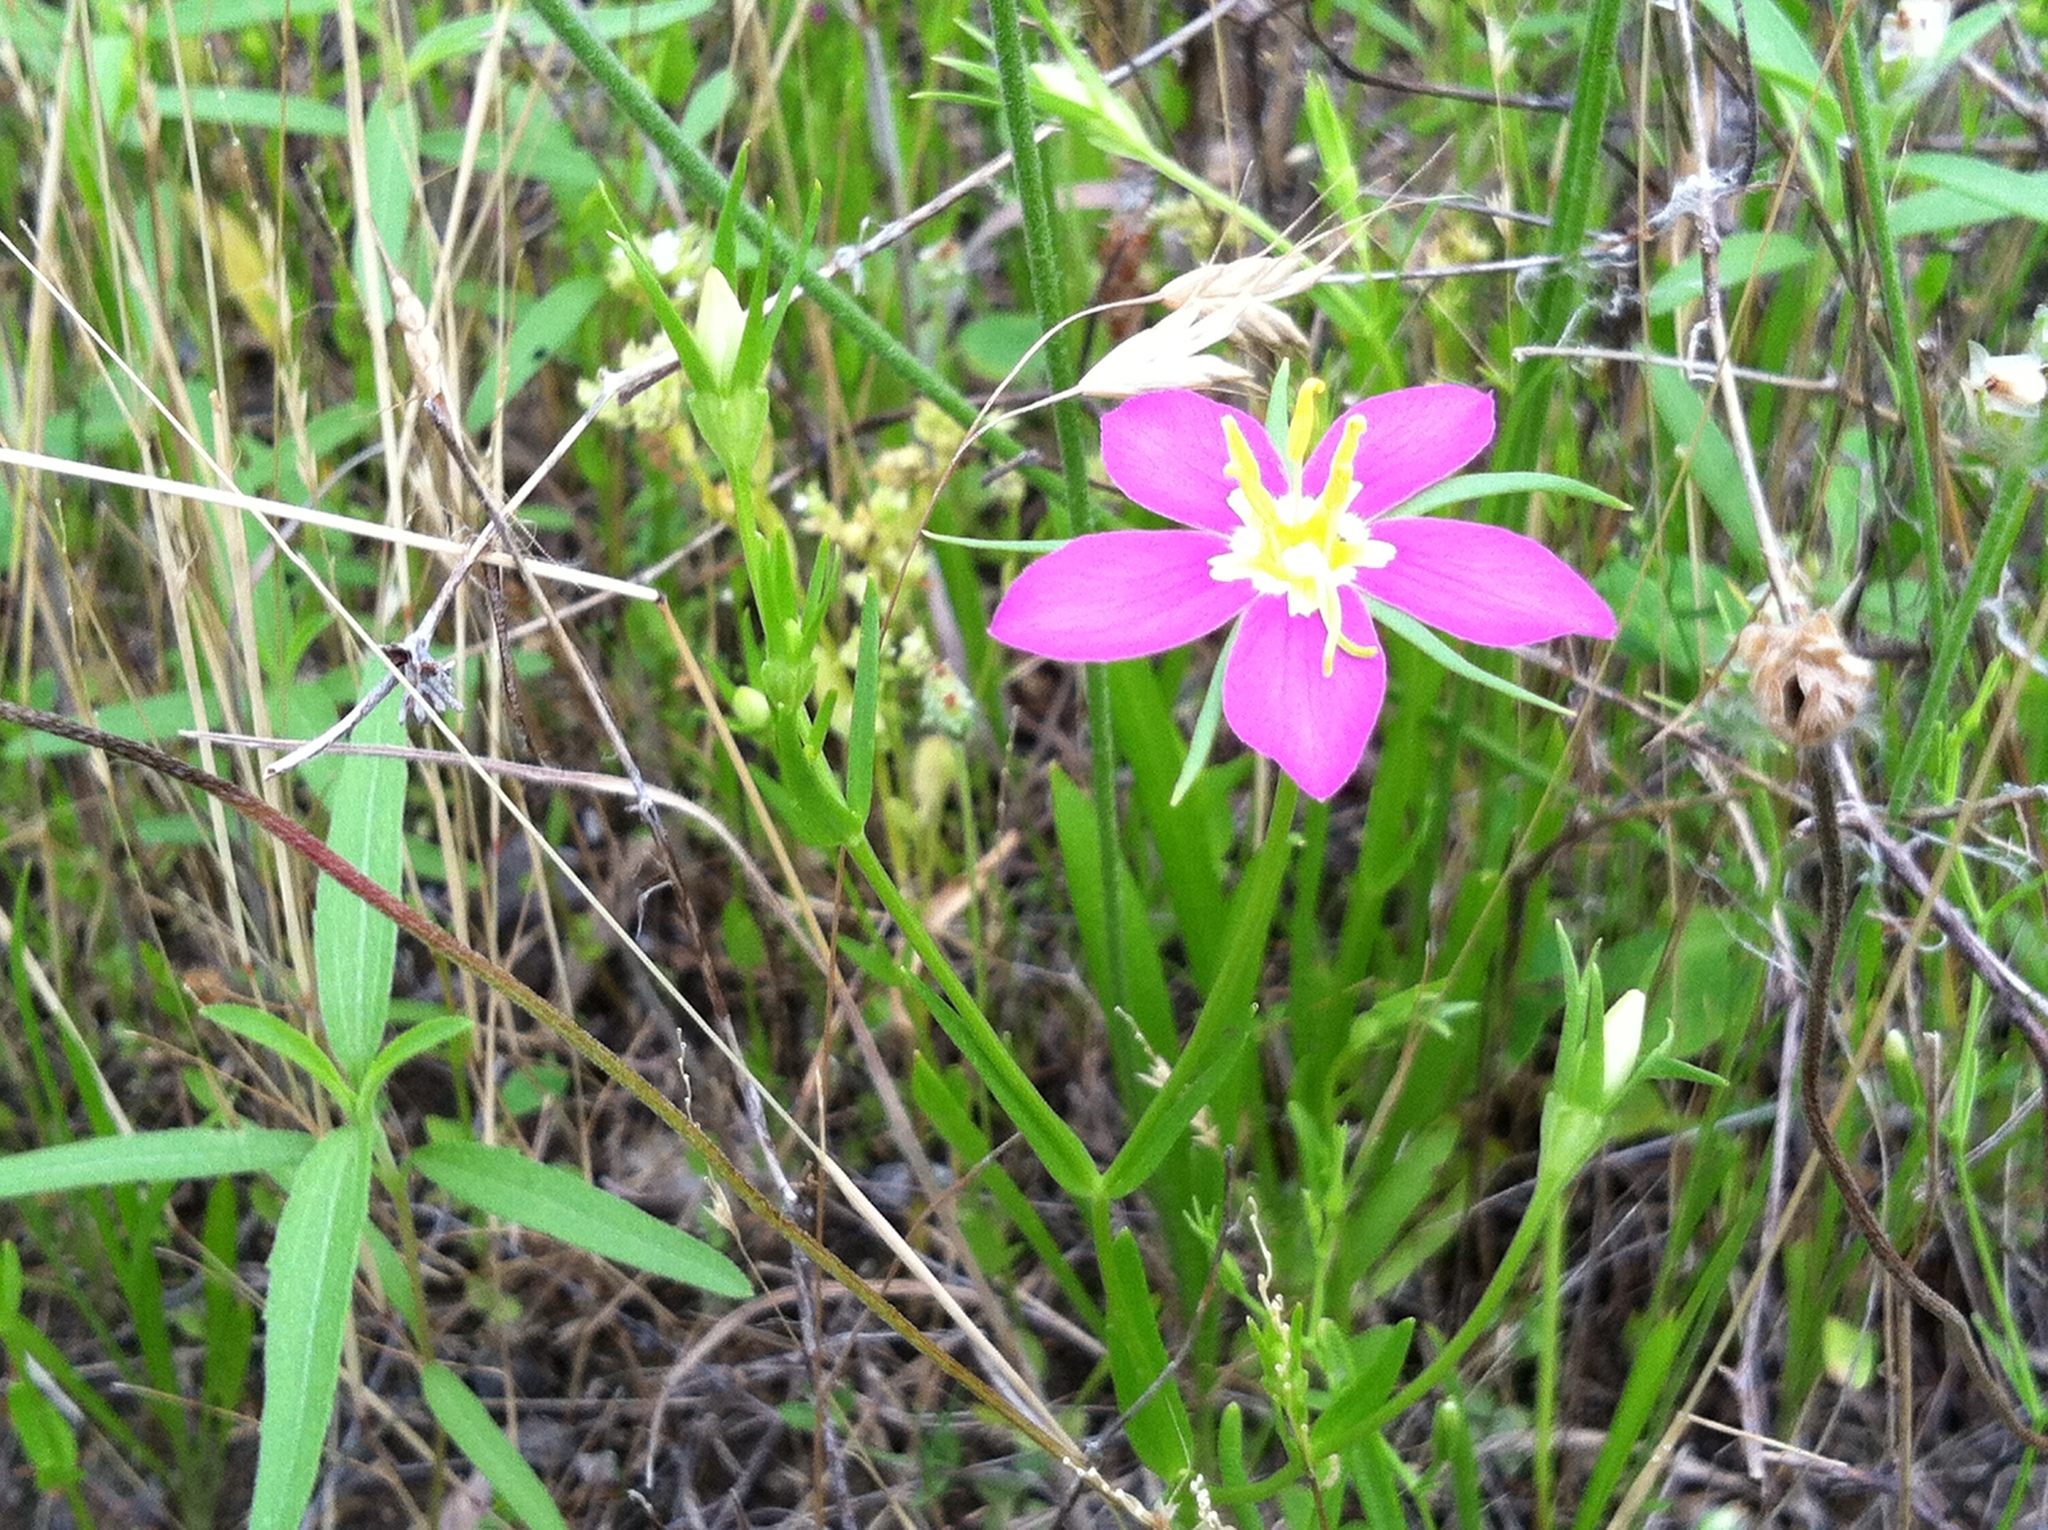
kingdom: Plantae
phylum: Tracheophyta
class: Magnoliopsida
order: Gentianales
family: Gentianaceae
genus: Sabatia
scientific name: Sabatia campestris
